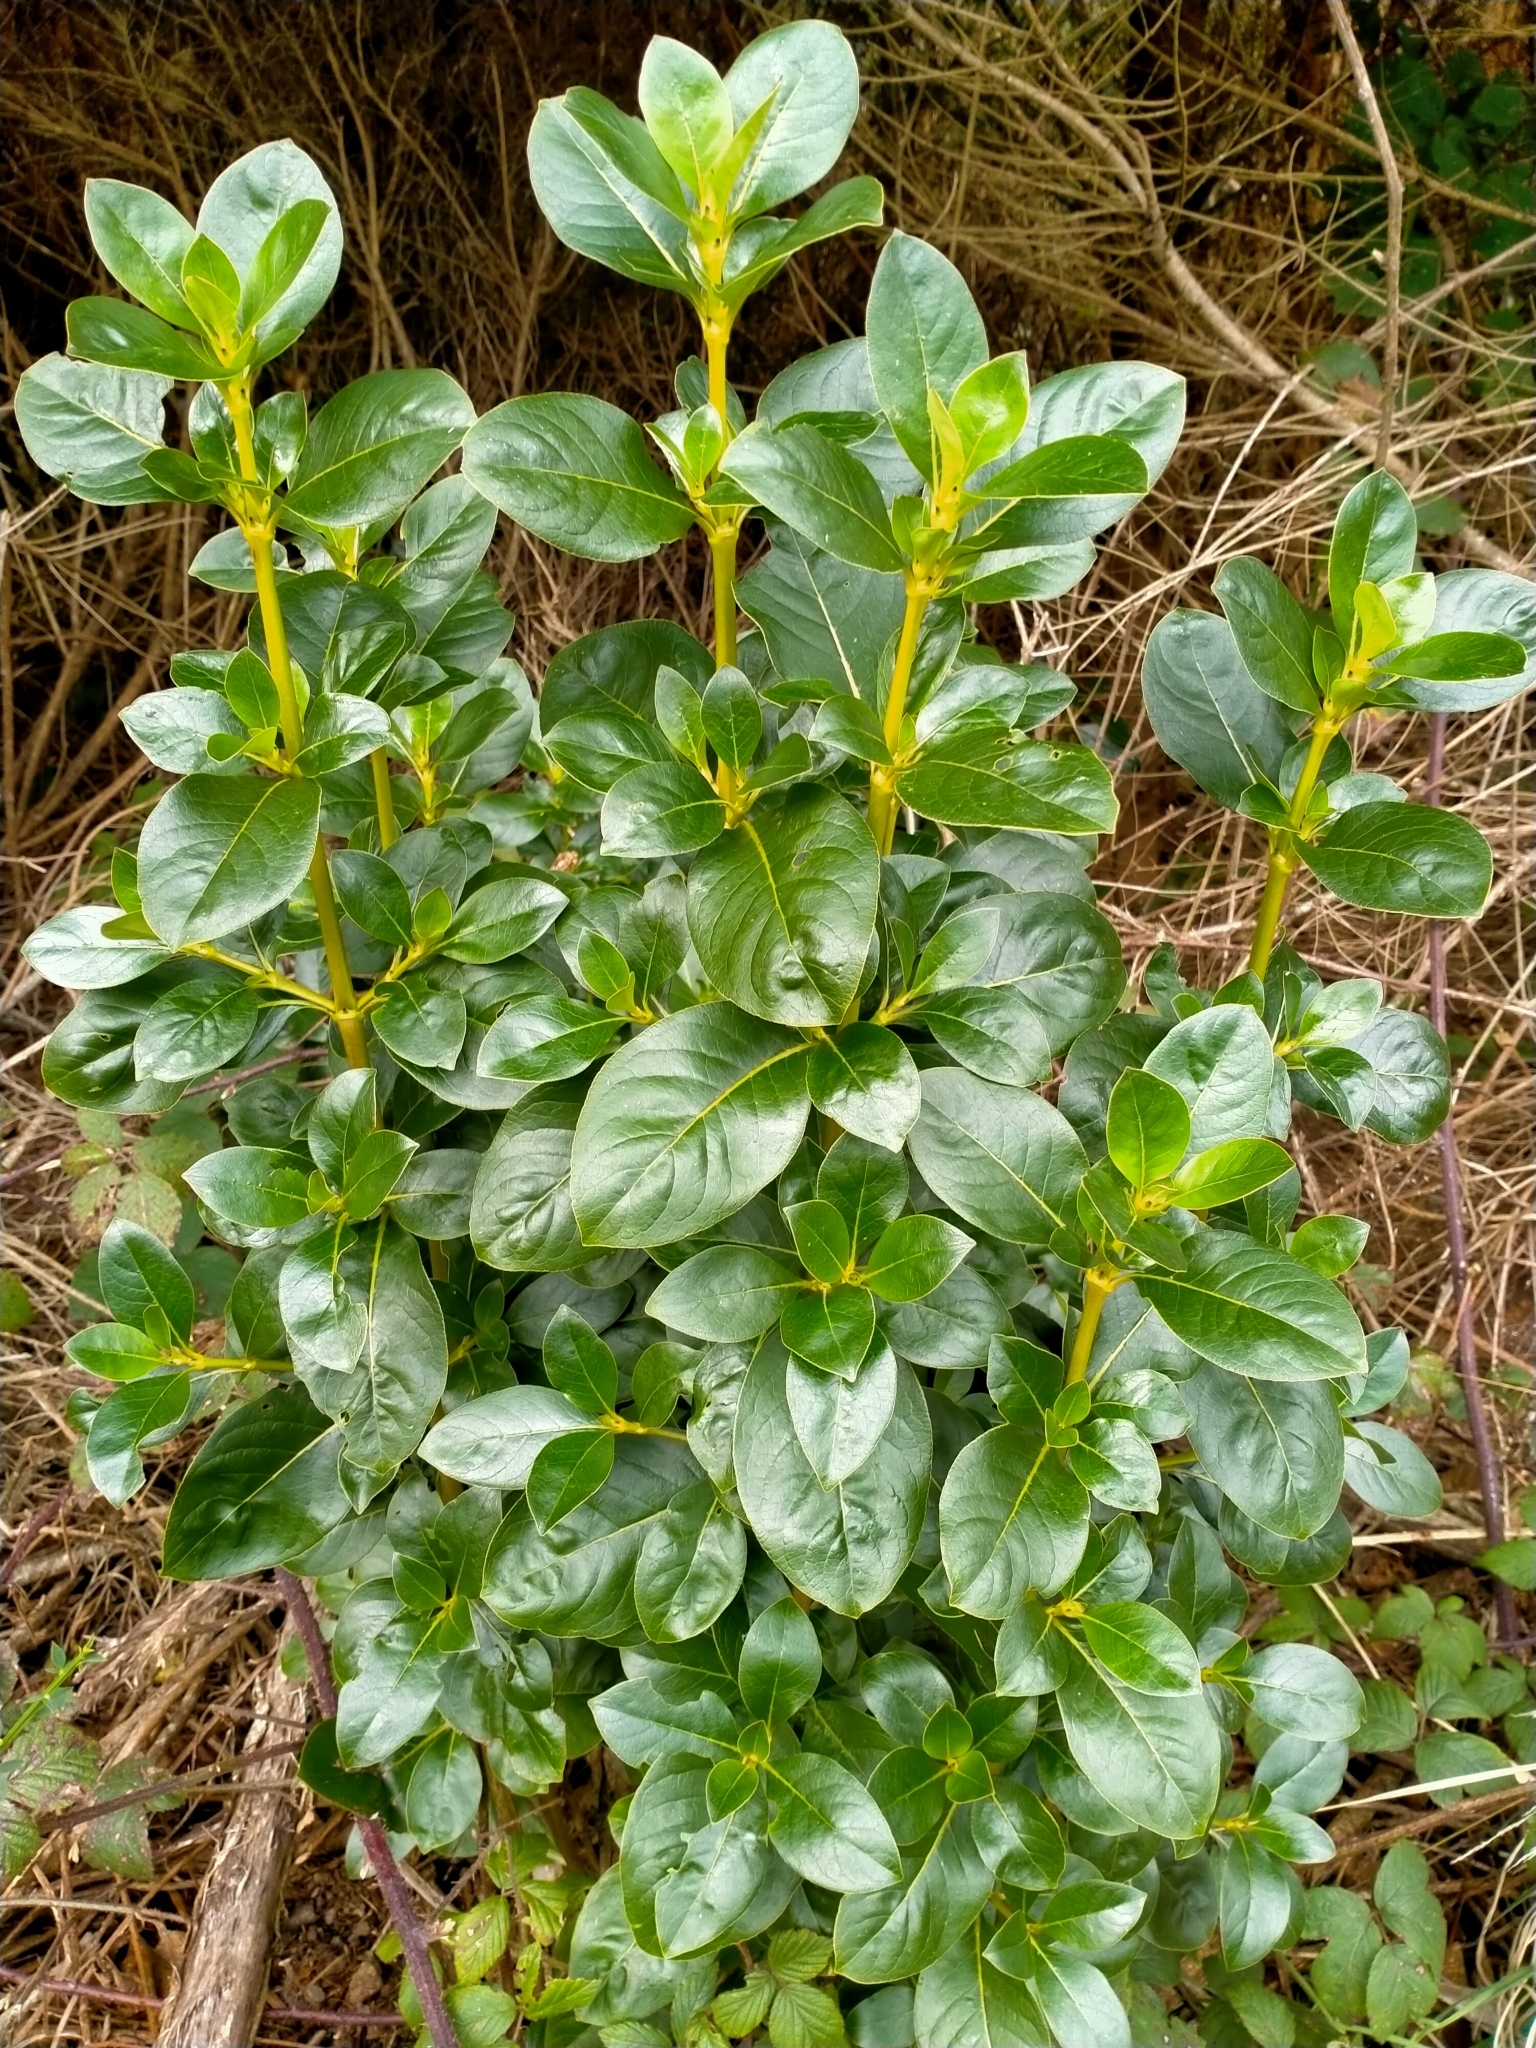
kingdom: Plantae
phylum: Tracheophyta
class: Magnoliopsida
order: Gentianales
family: Rubiaceae
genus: Coprosma
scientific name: Coprosma robusta
